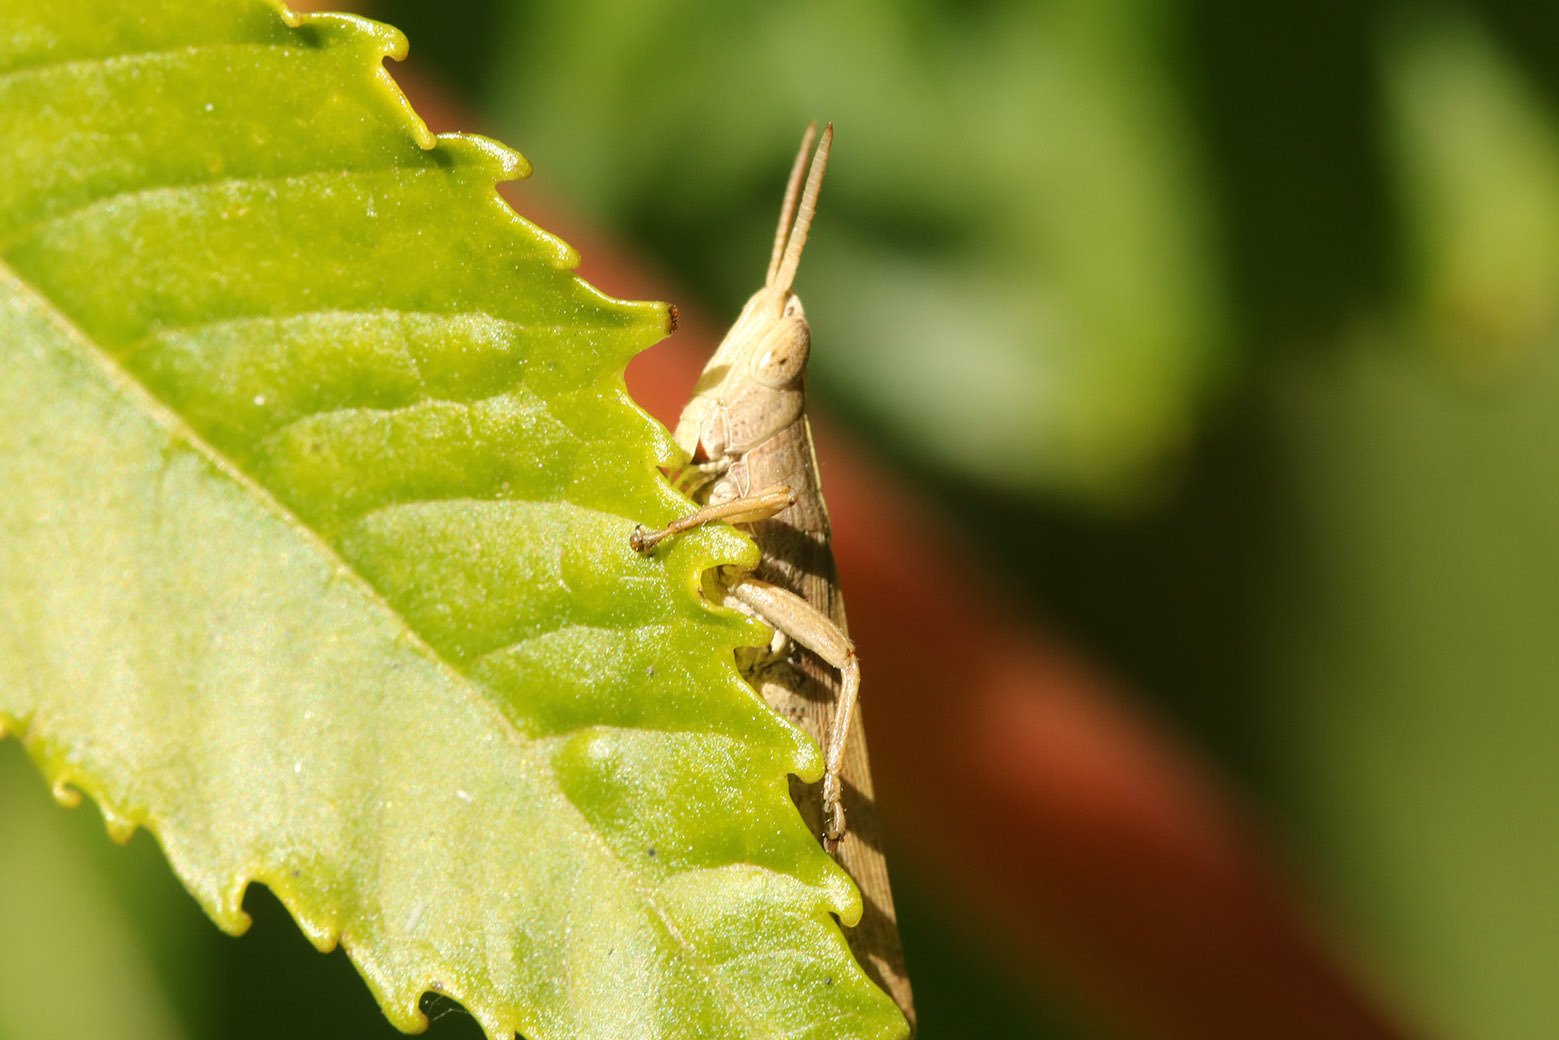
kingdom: Animalia
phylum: Arthropoda
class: Insecta
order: Orthoptera
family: Acrididae
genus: Laplatacris
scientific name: Laplatacris dispar
